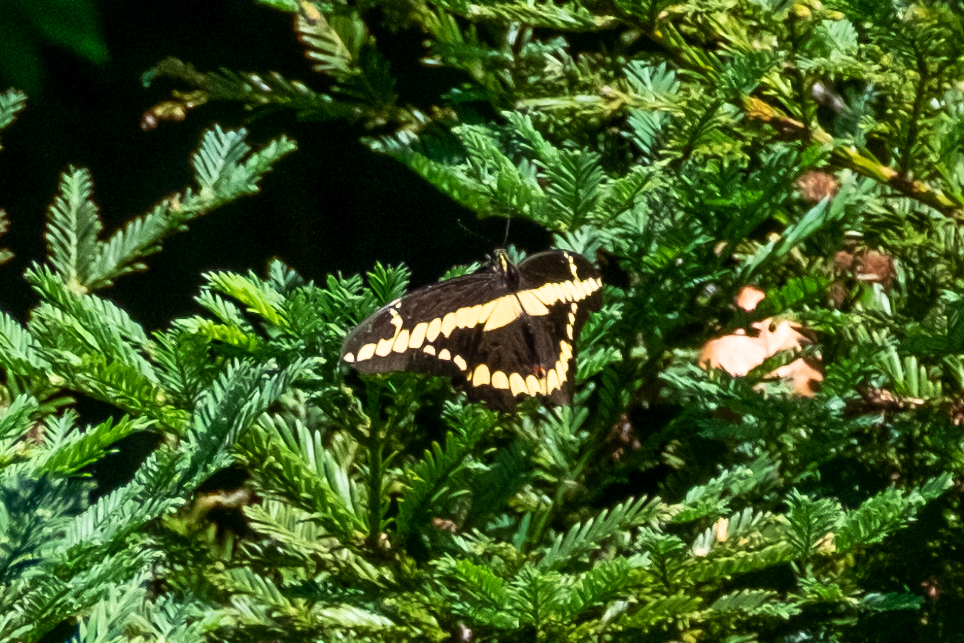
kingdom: Animalia
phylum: Arthropoda
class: Insecta
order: Lepidoptera
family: Papilionidae
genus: Papilio
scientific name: Papilio rumiko
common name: Western giant swallowtail
